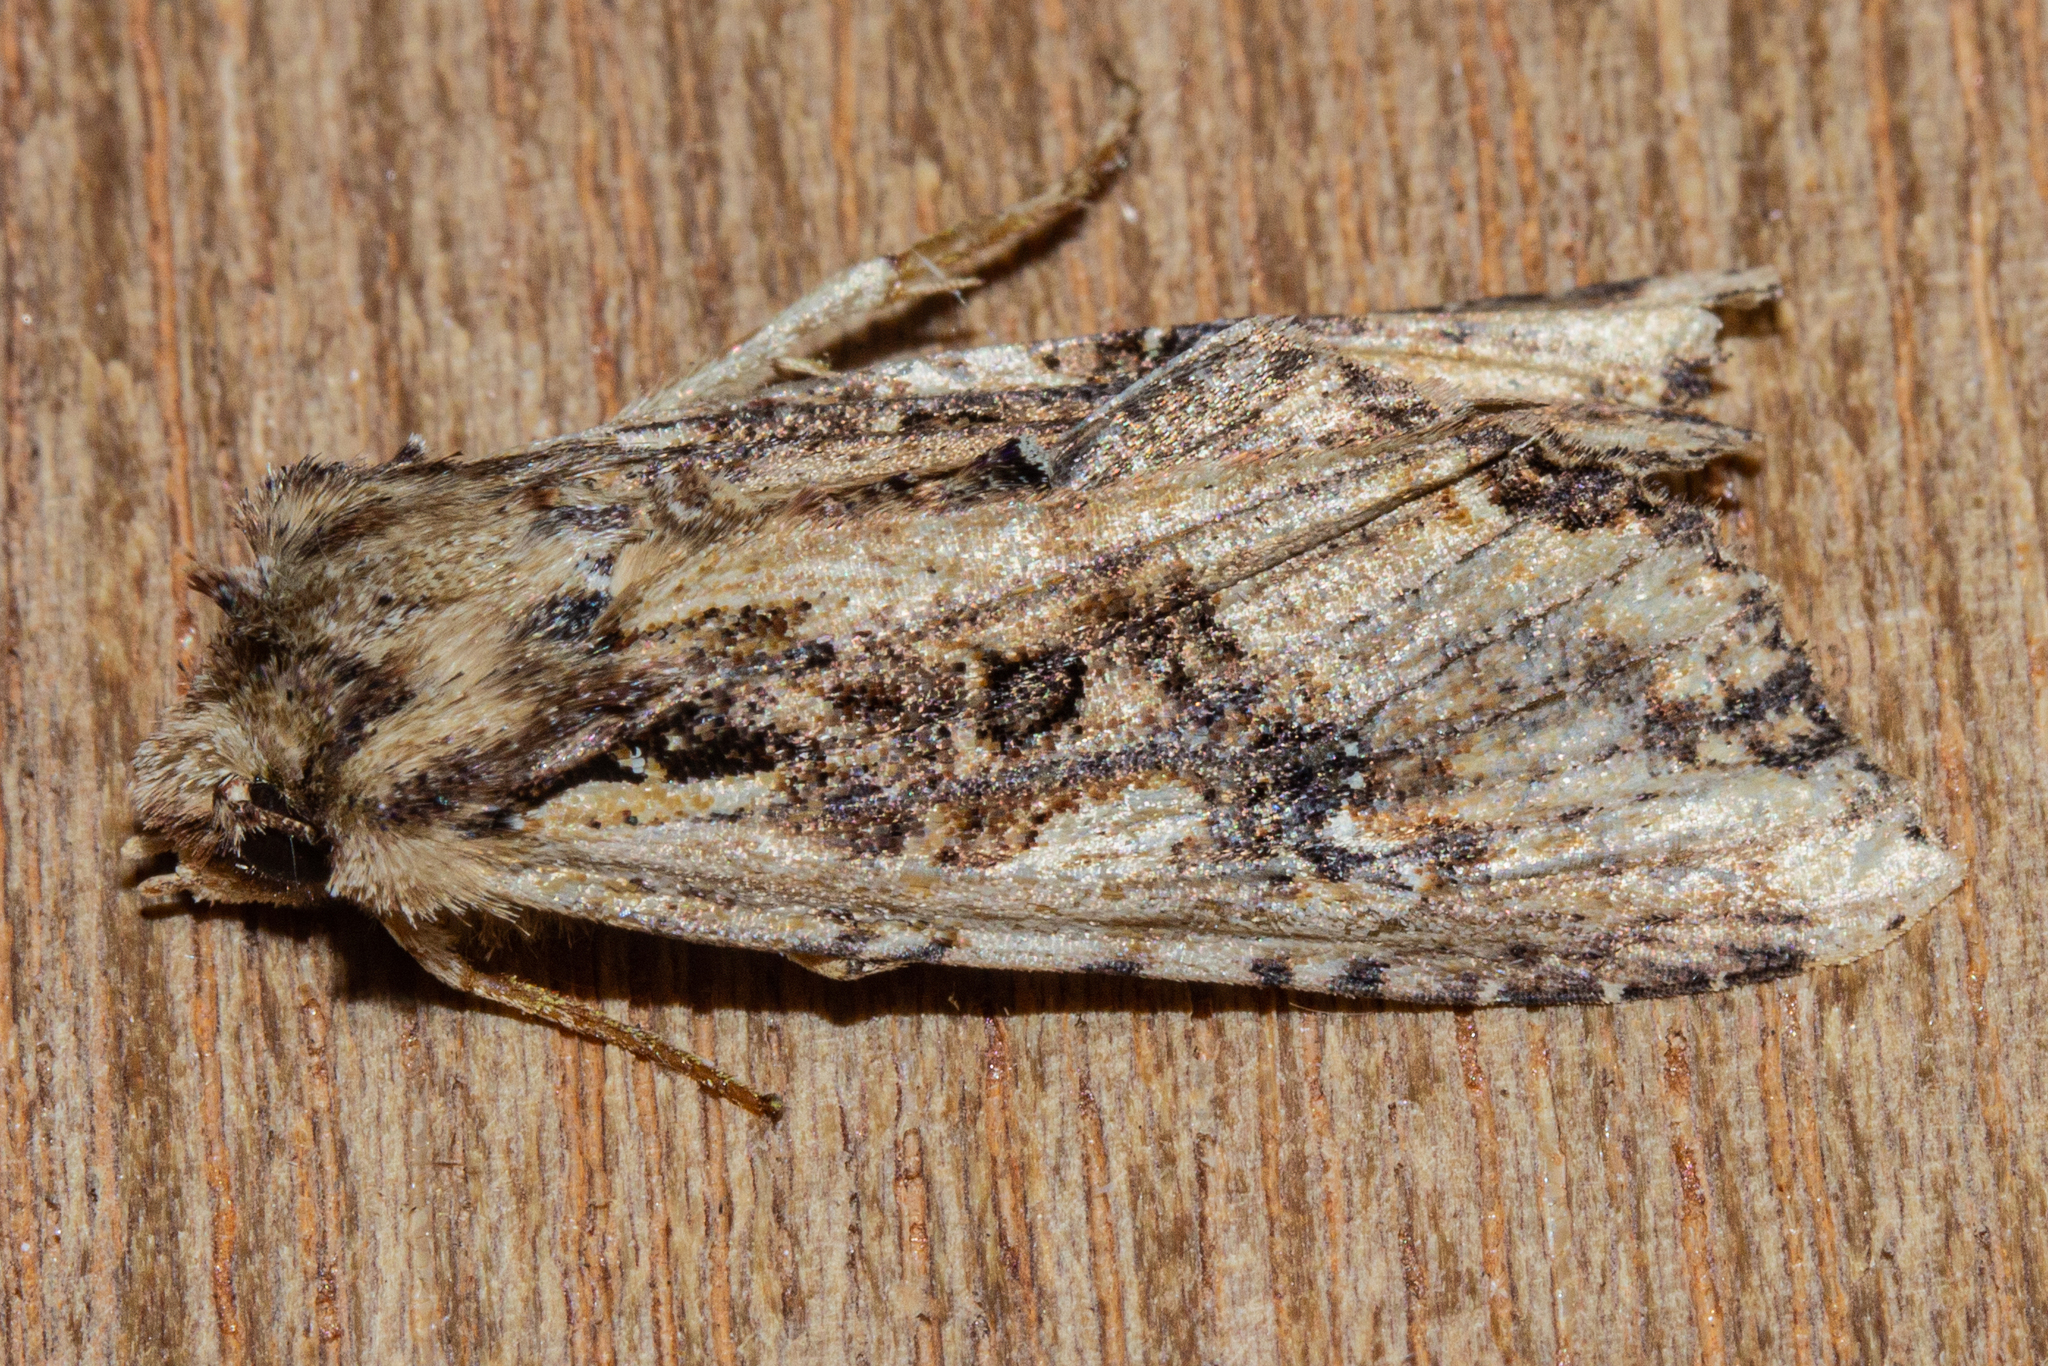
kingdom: Animalia
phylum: Arthropoda
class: Insecta
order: Lepidoptera
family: Noctuidae
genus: Meterana
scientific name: Meterana stipata
